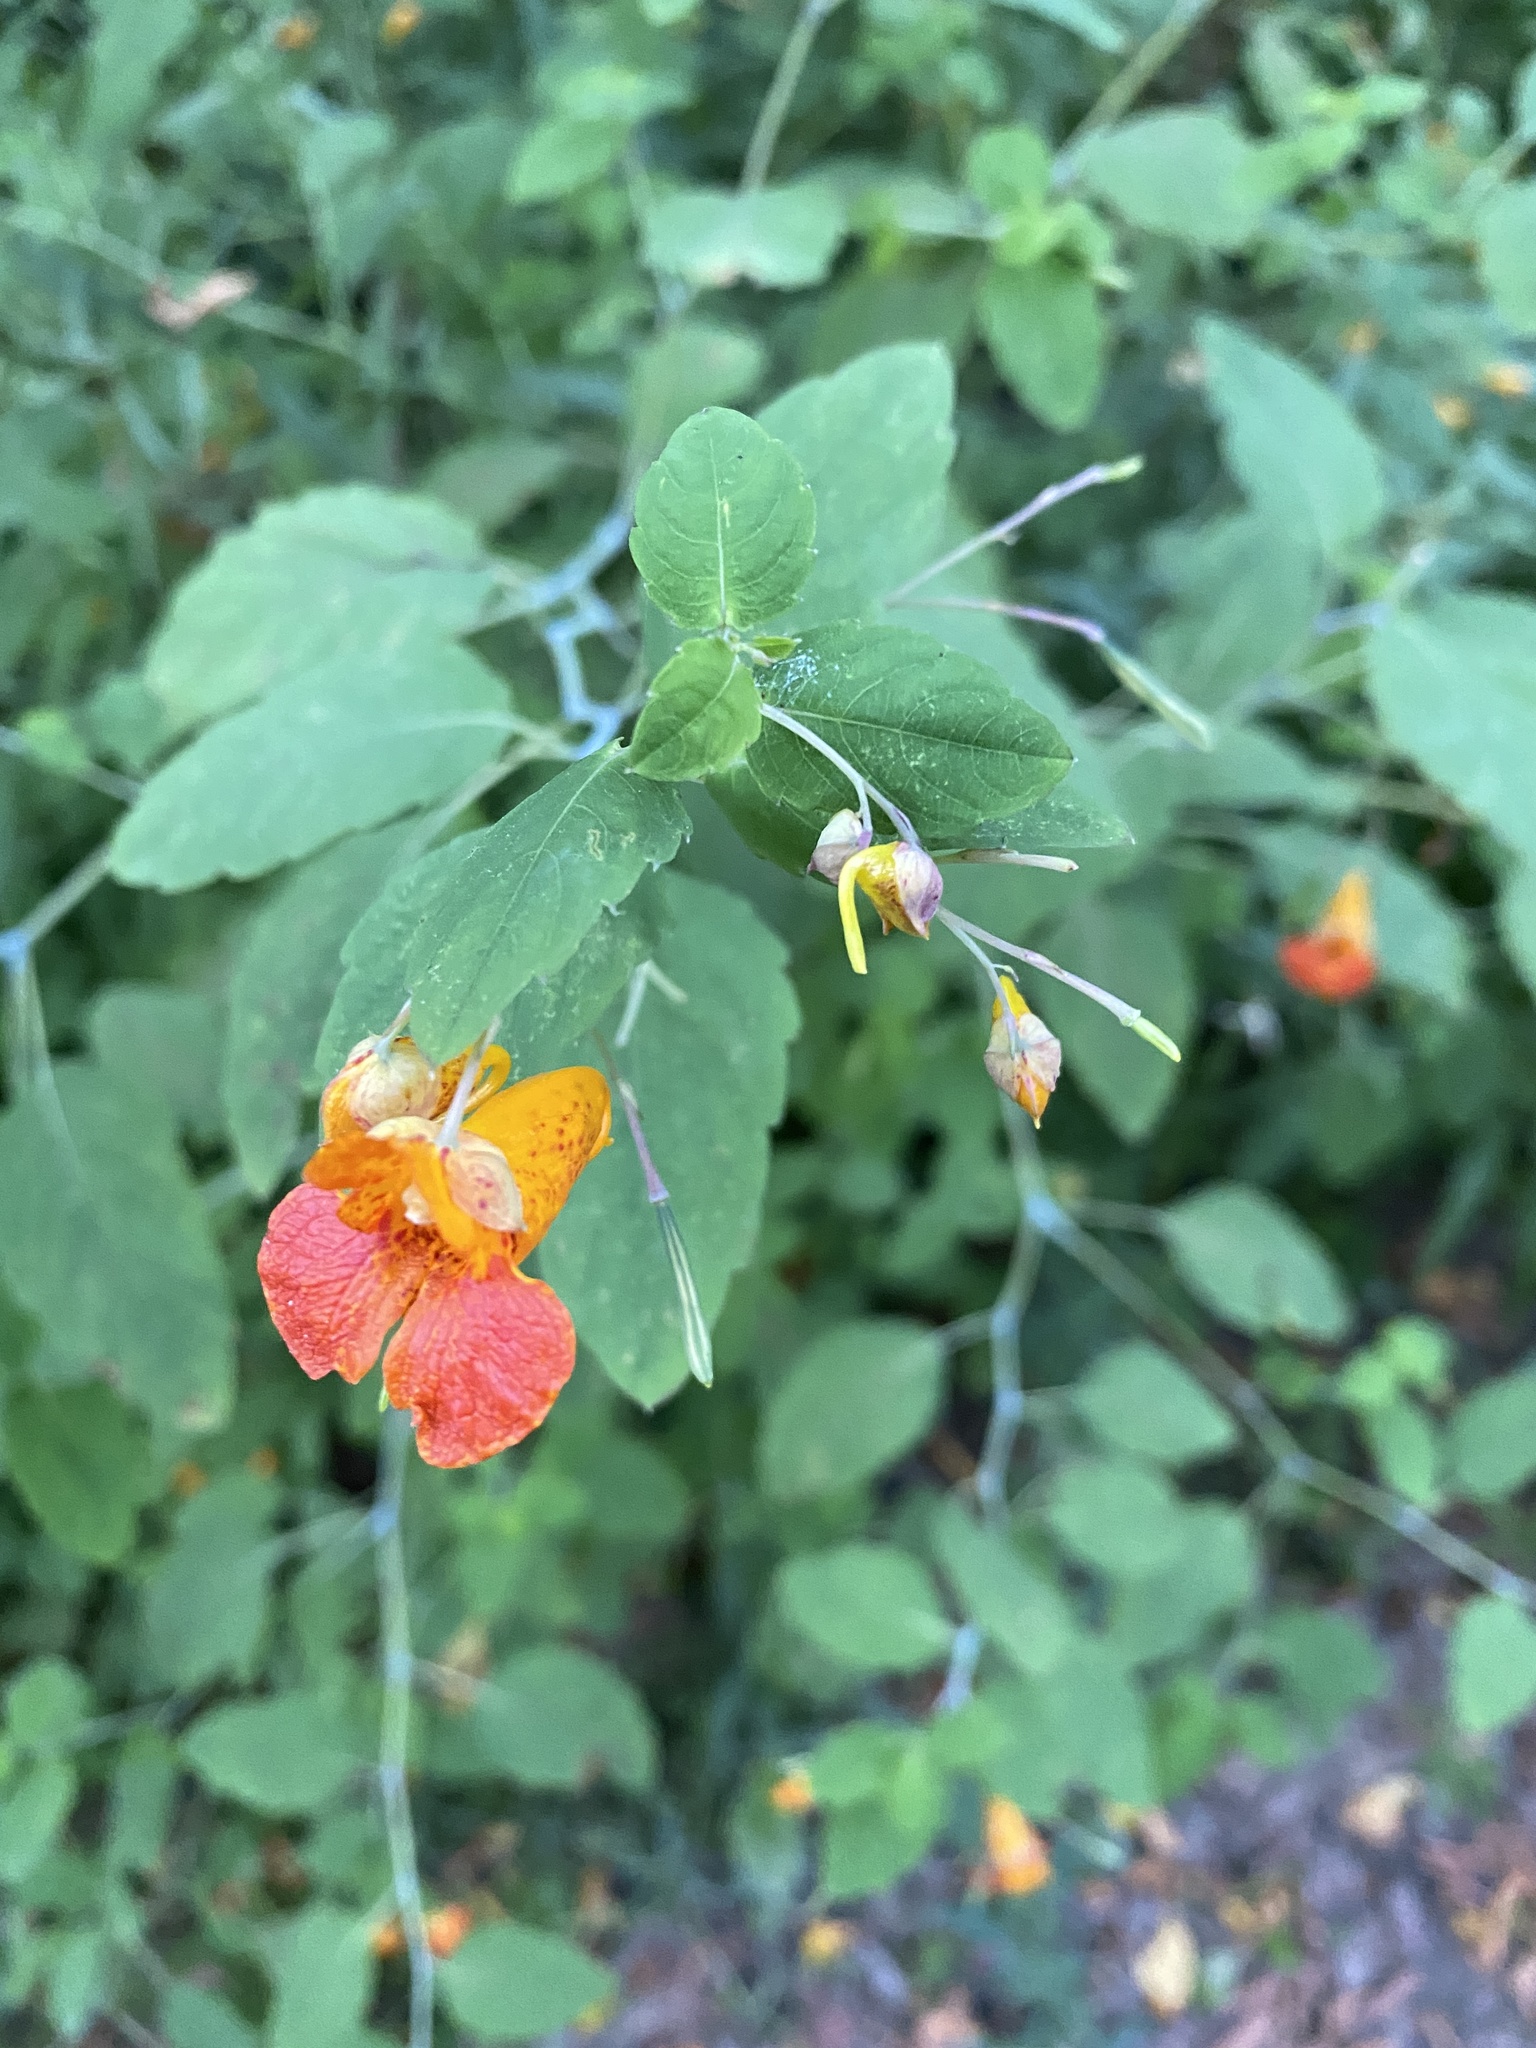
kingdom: Plantae
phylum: Tracheophyta
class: Magnoliopsida
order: Ericales
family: Balsaminaceae
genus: Impatiens
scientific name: Impatiens capensis
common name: Orange balsam
